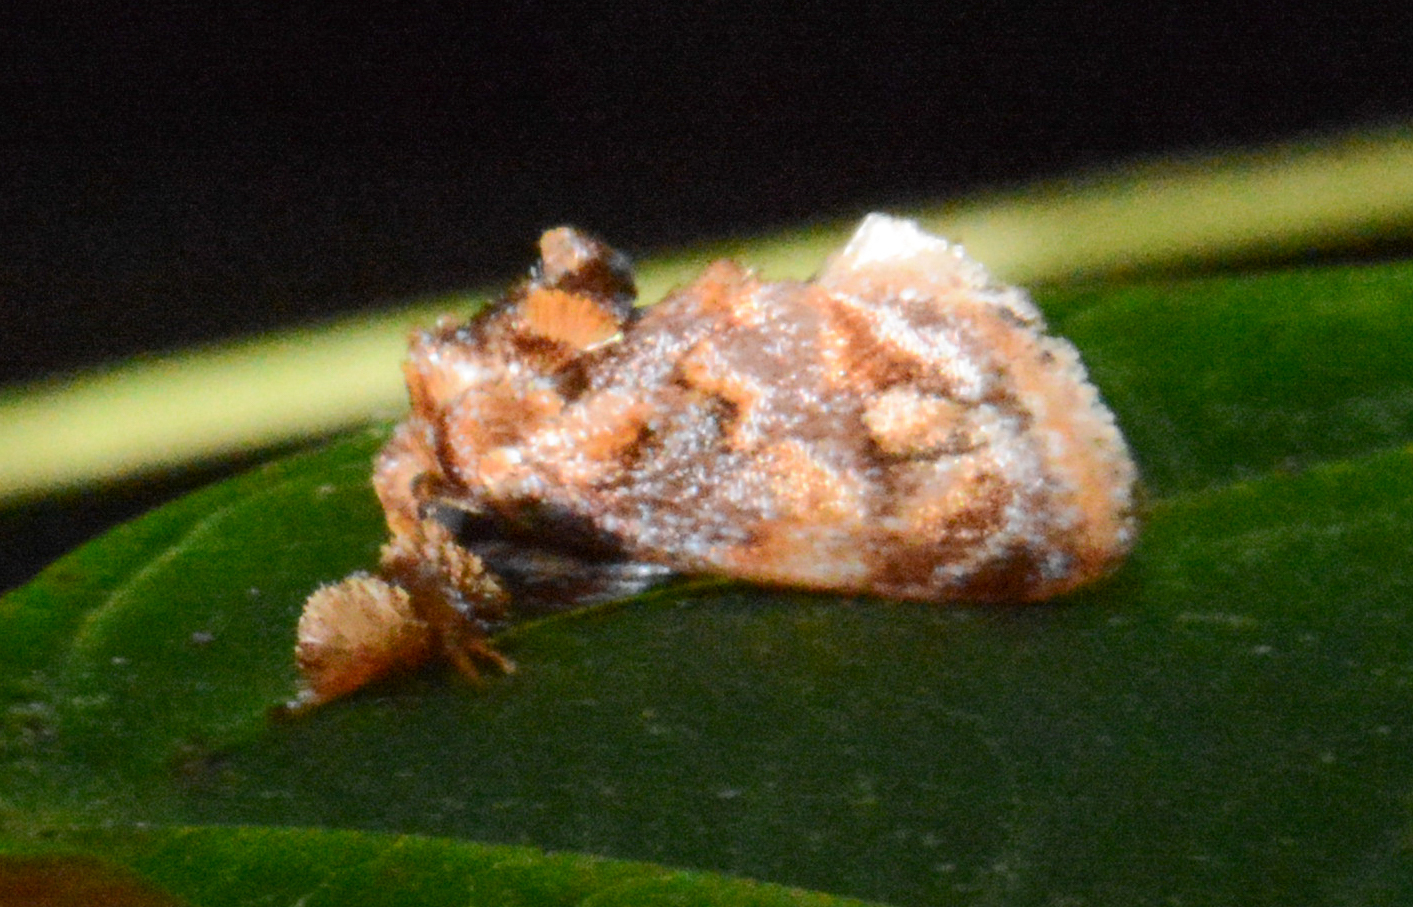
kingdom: Animalia
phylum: Arthropoda
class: Insecta
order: Lepidoptera
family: Limacodidae
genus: Isochaetes
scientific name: Isochaetes beutenmuelleri
